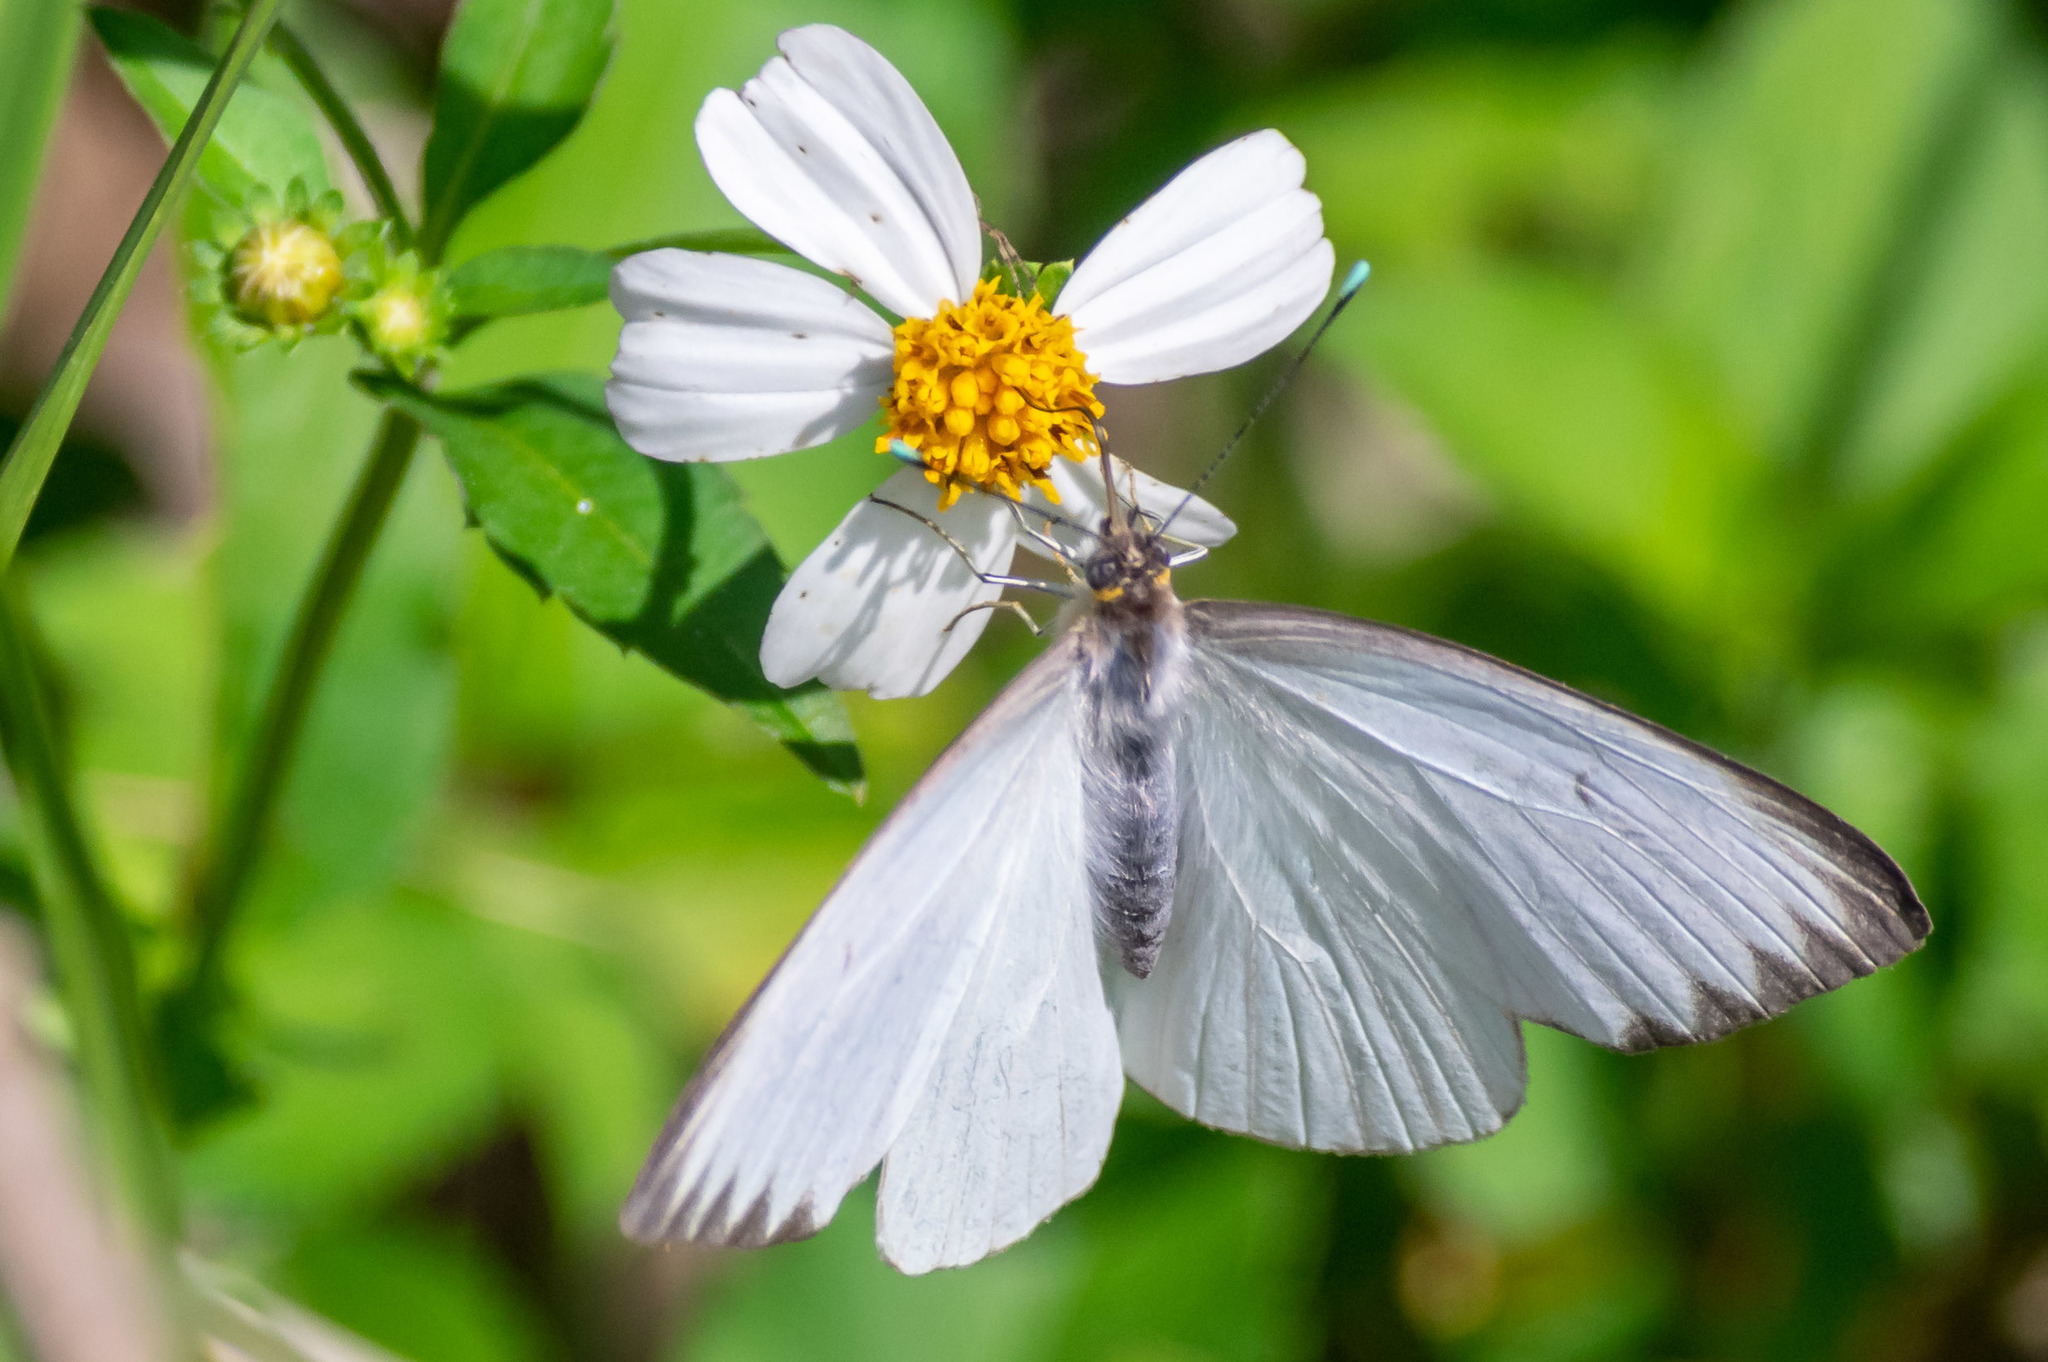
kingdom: Animalia
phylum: Arthropoda
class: Insecta
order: Lepidoptera
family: Pieridae
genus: Ascia
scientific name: Ascia monuste
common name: Great southern white
